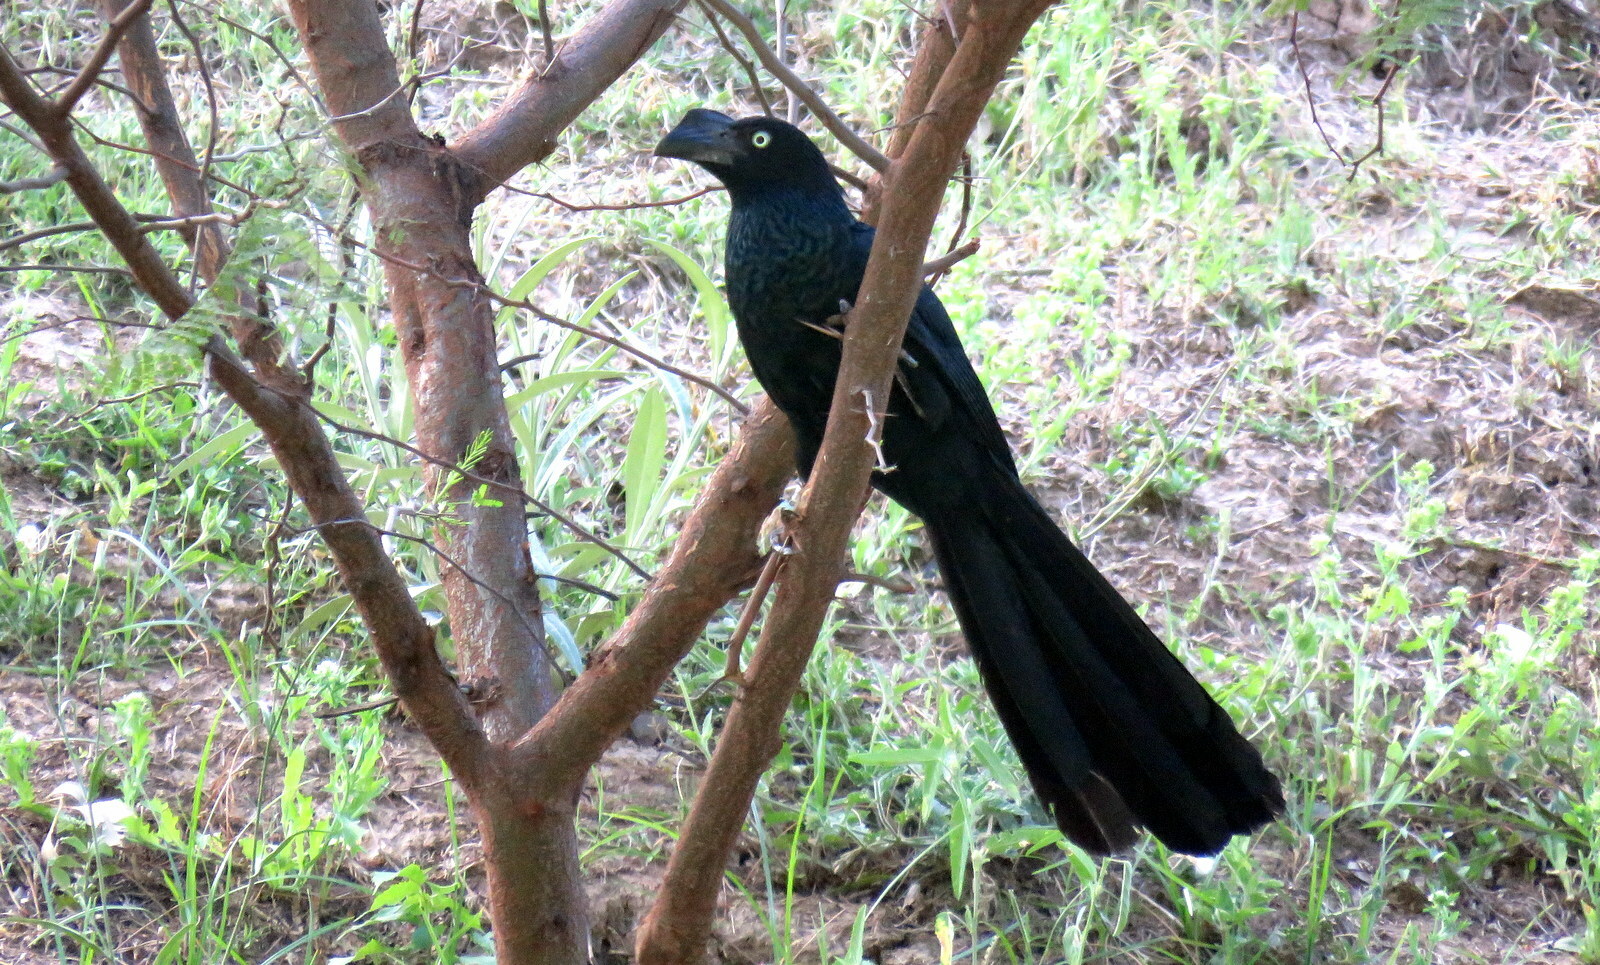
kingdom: Animalia
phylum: Chordata
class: Aves
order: Cuculiformes
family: Cuculidae
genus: Crotophaga
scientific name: Crotophaga major
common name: Greater ani
